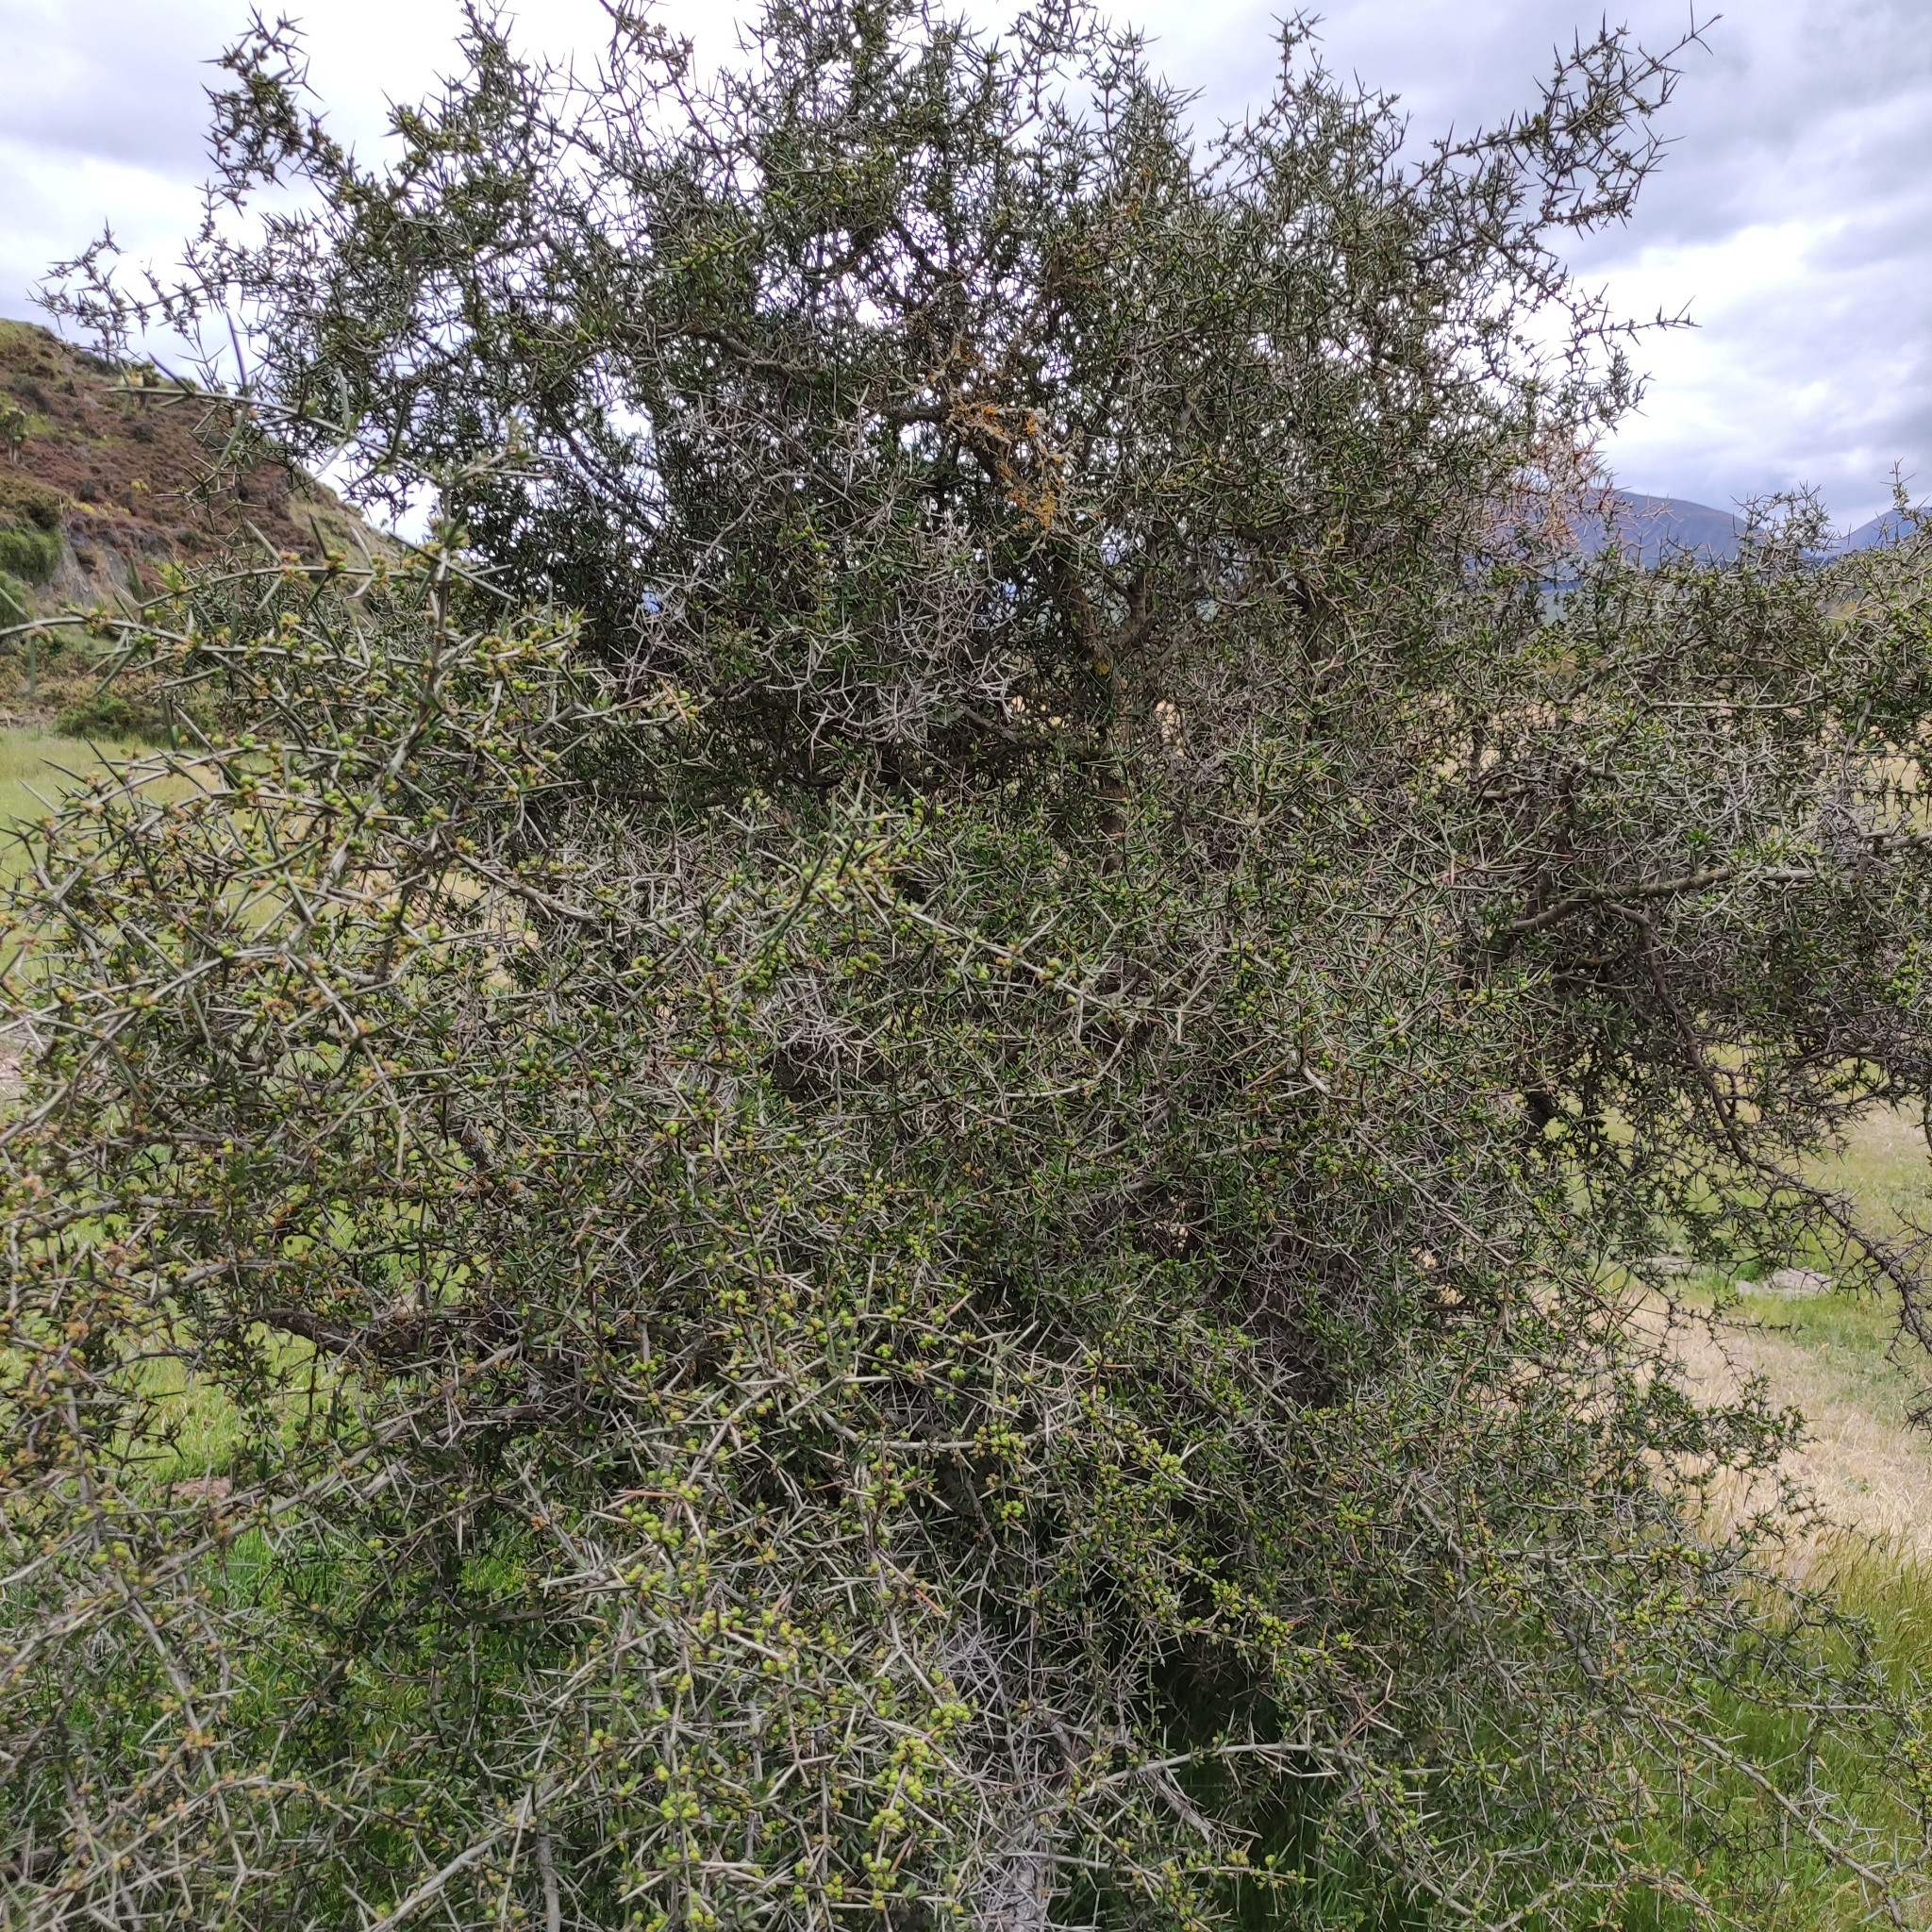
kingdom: Plantae
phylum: Tracheophyta
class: Magnoliopsida
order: Rosales
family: Rhamnaceae
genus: Discaria
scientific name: Discaria toumatou
